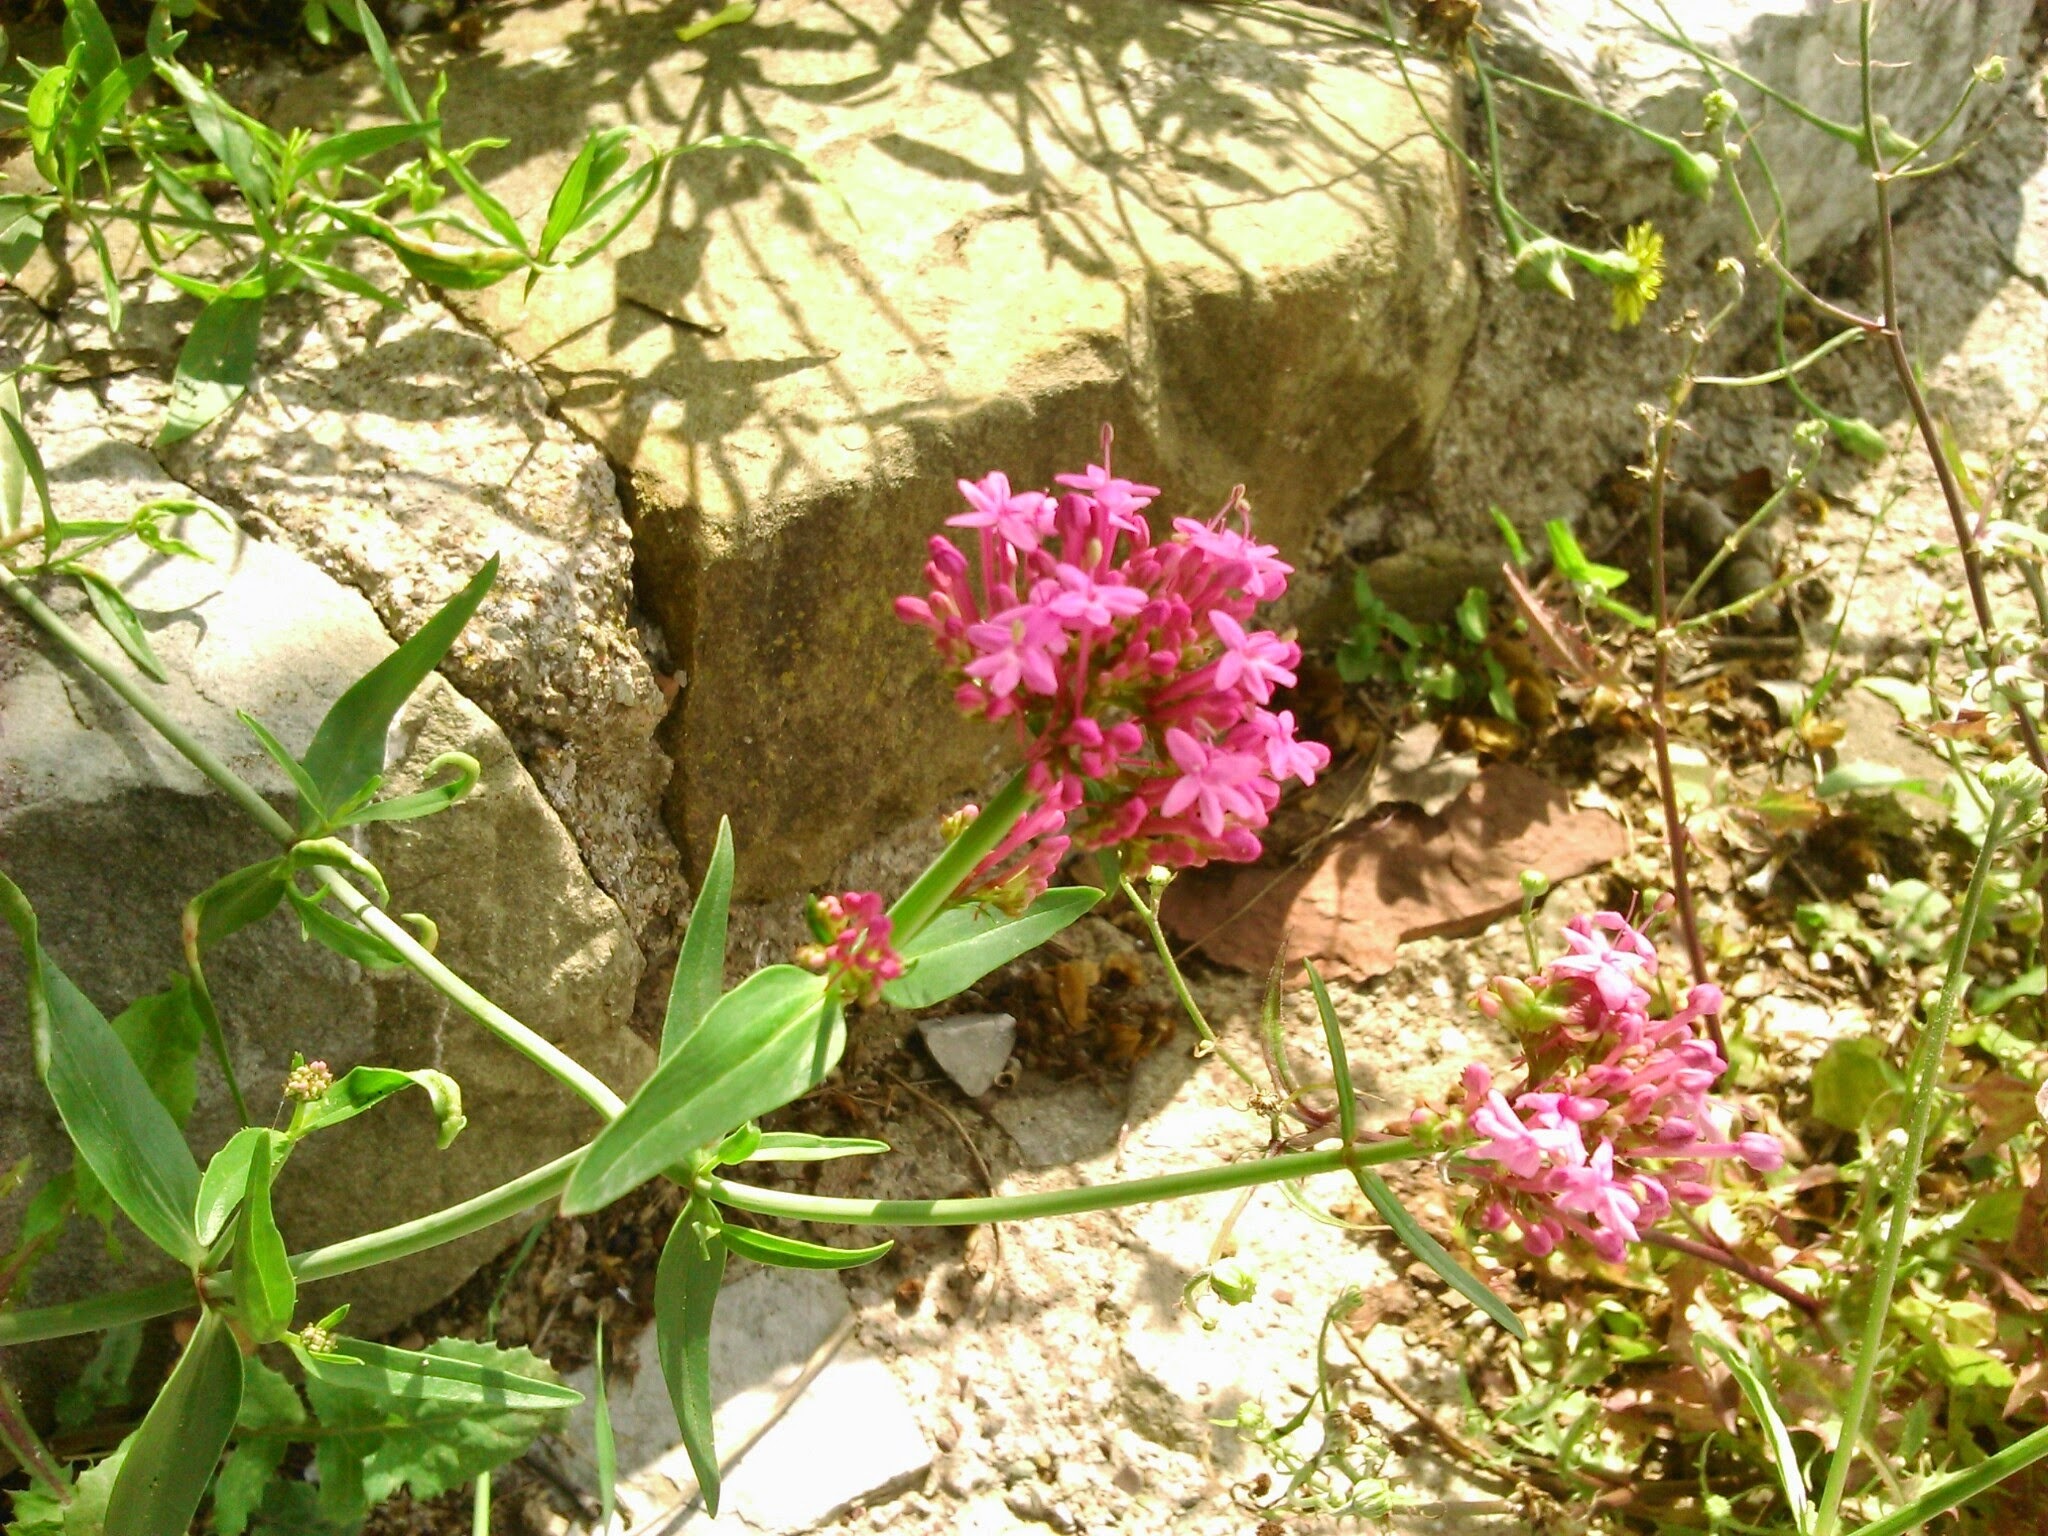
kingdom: Plantae
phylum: Tracheophyta
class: Magnoliopsida
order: Dipsacales
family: Caprifoliaceae
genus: Centranthus
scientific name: Centranthus ruber
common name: Red valerian
